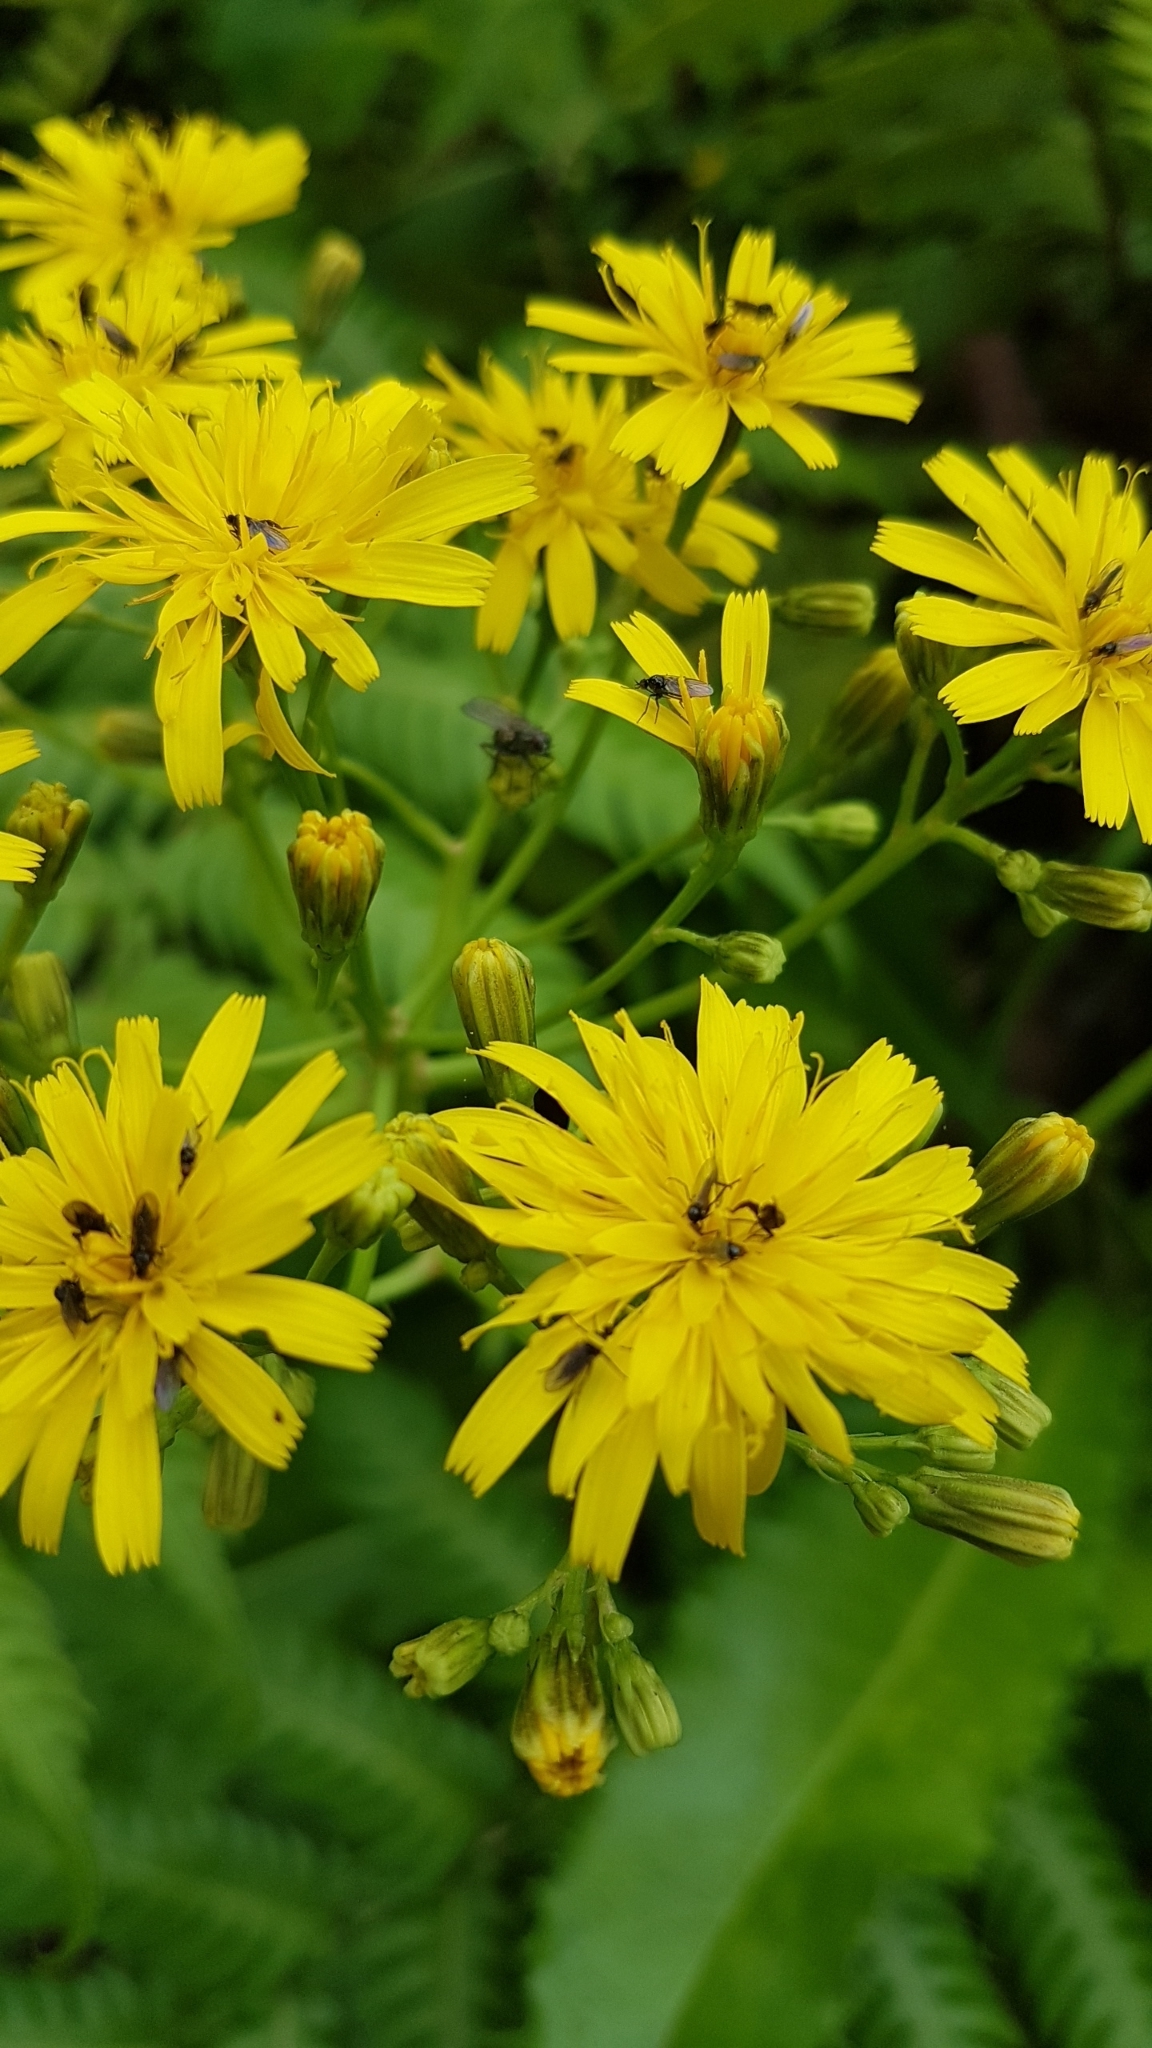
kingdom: Plantae
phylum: Tracheophyta
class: Magnoliopsida
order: Asterales
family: Asteraceae
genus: Leontodon
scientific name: Leontodon rigens
